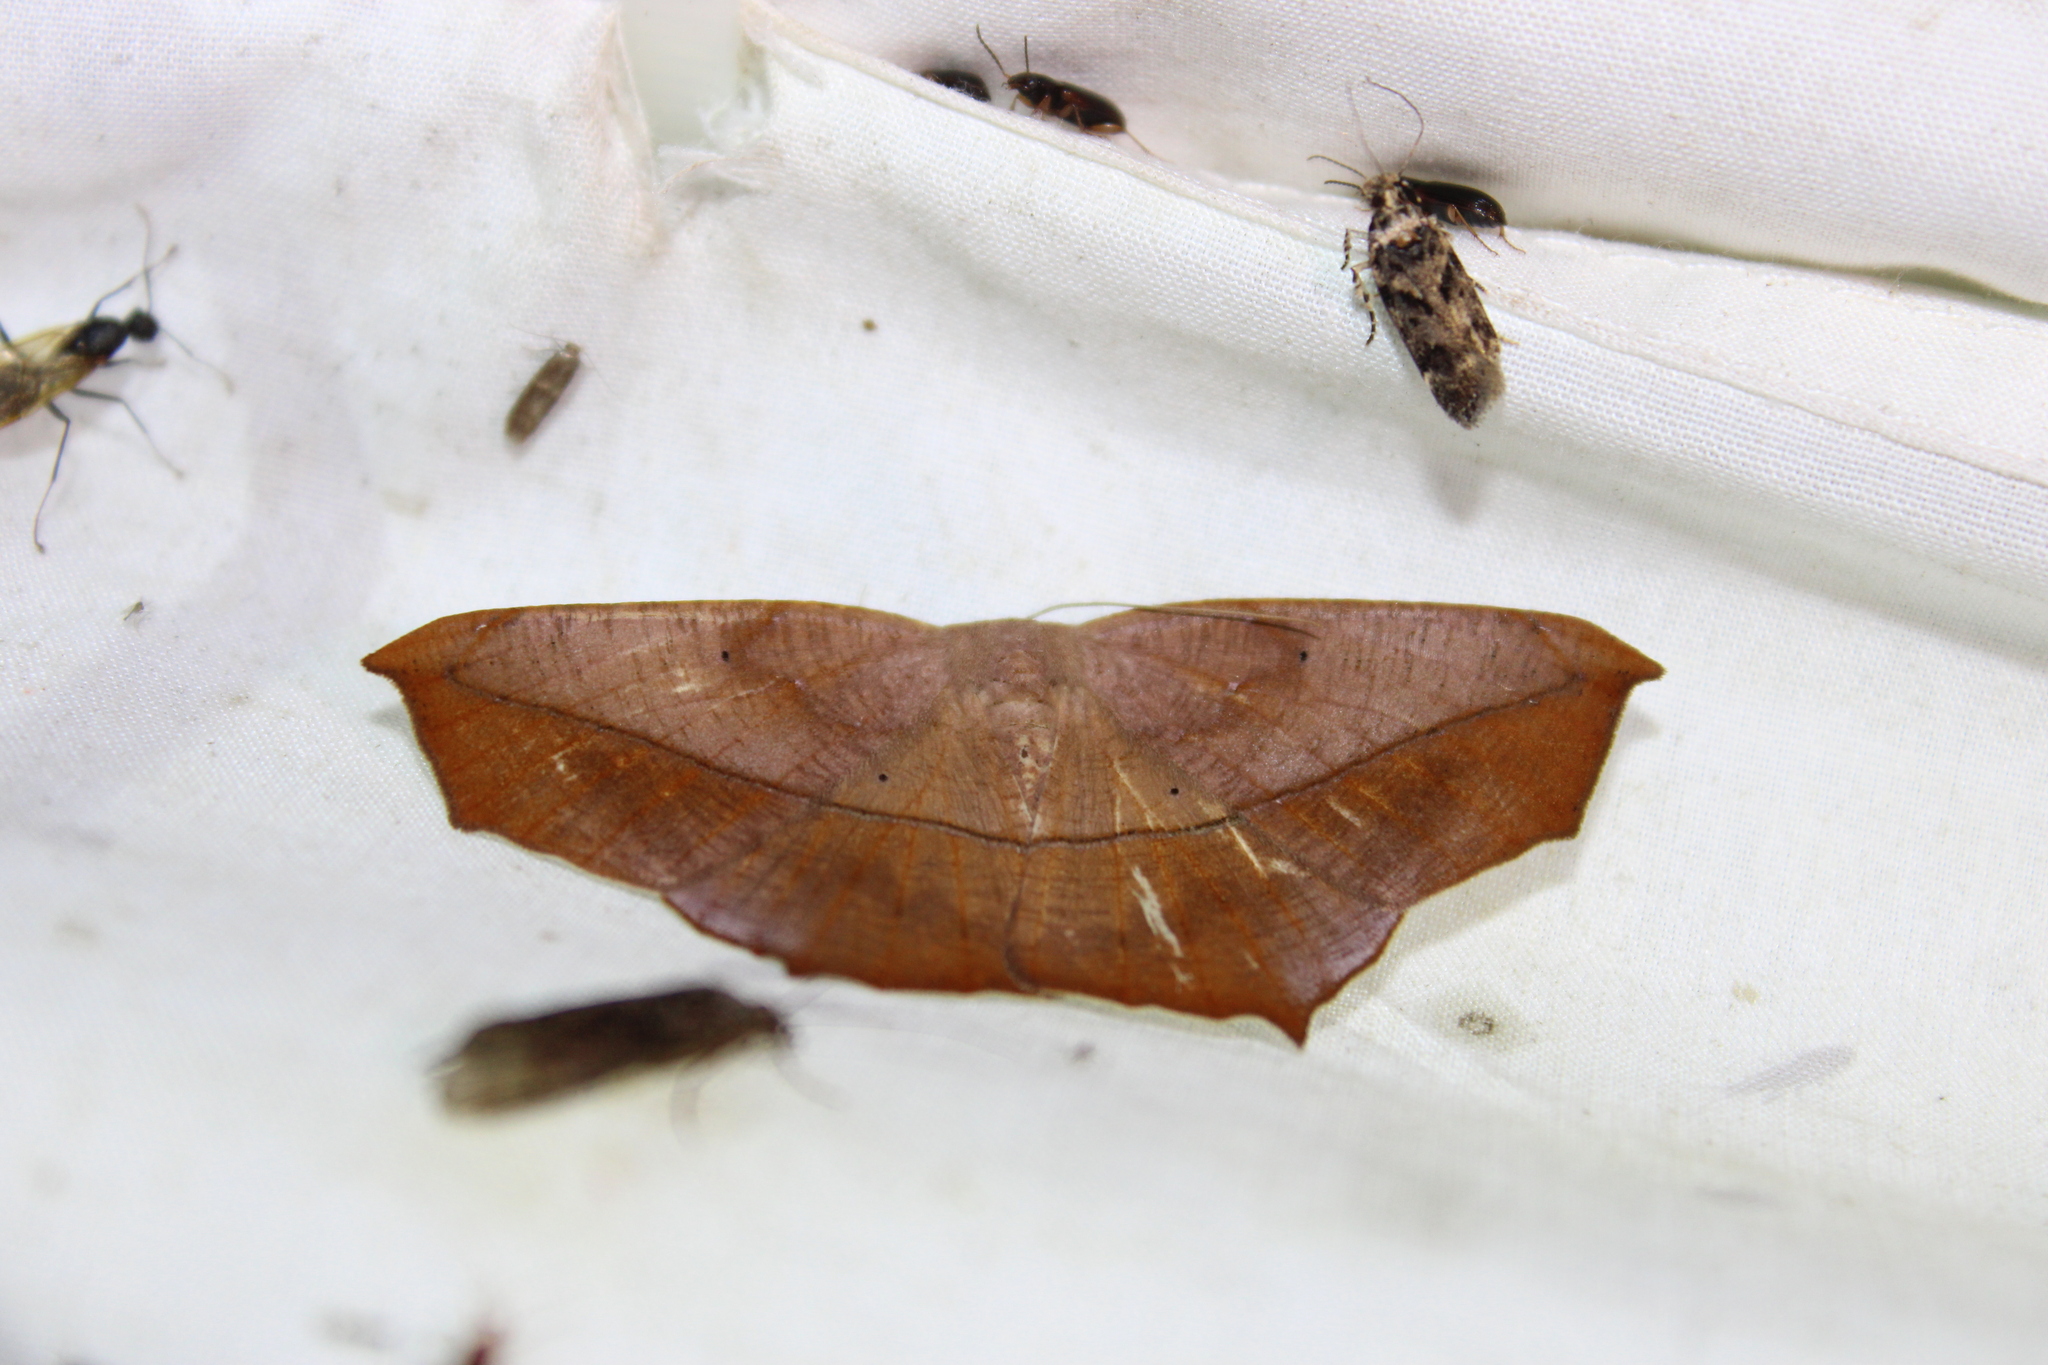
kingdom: Animalia
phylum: Arthropoda
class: Insecta
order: Lepidoptera
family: Geometridae
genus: Prochoerodes
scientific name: Prochoerodes lineola
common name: Large maple spanworm
